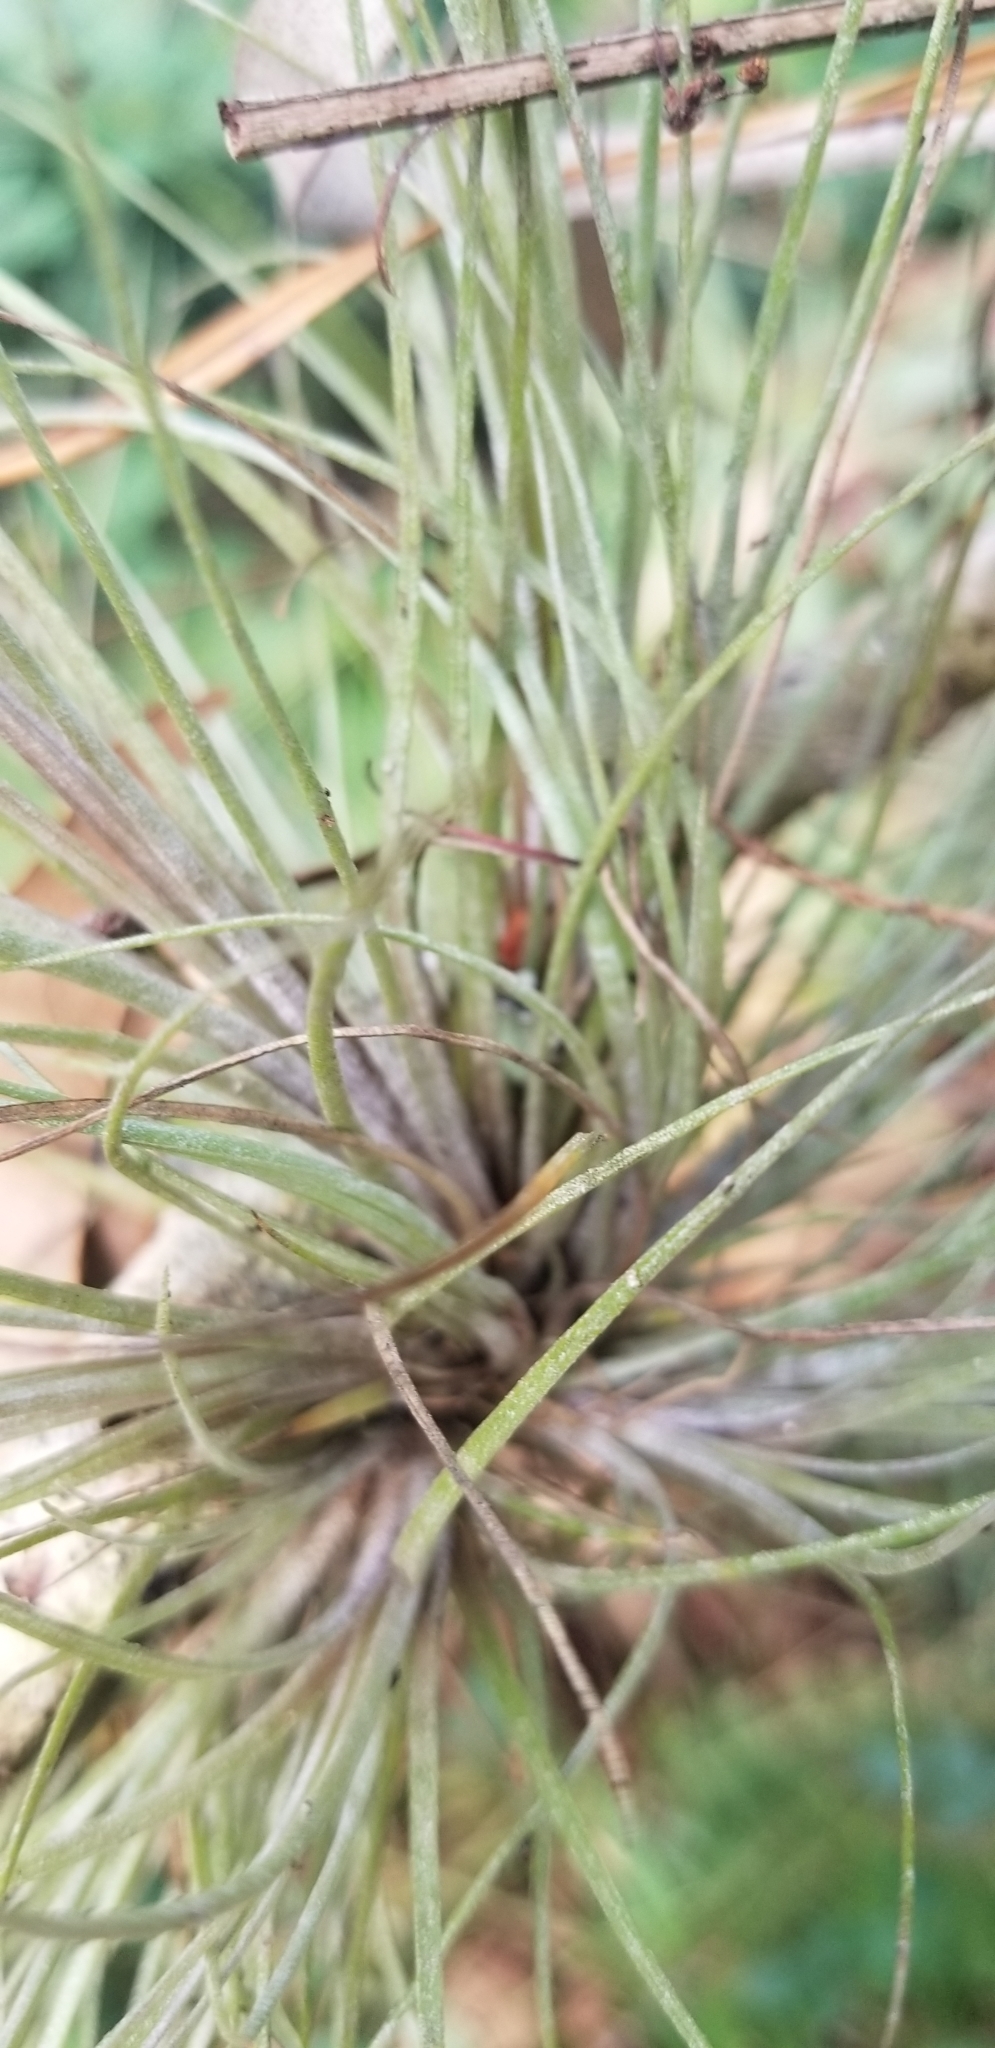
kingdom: Plantae
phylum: Tracheophyta
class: Liliopsida
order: Poales
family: Bromeliaceae
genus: Tillandsia
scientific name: Tillandsia bartramii
